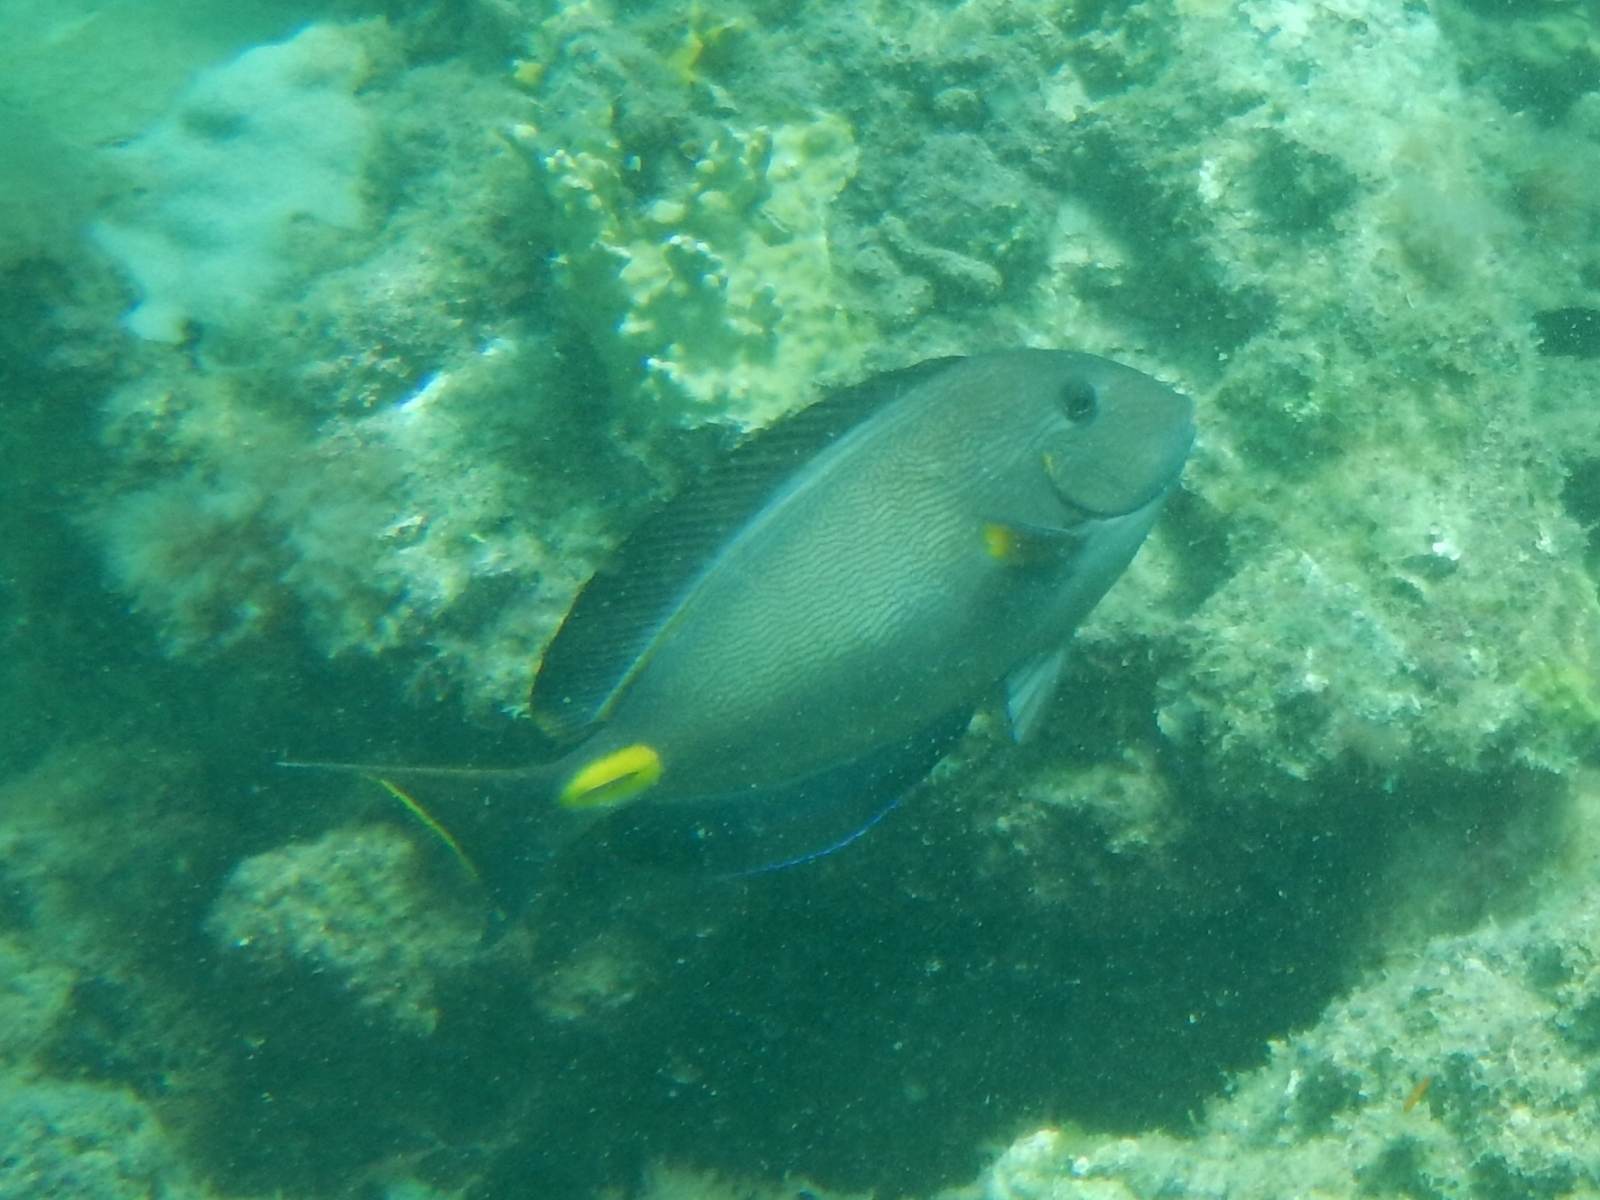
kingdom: Animalia
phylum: Chordata
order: Perciformes
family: Acanthuridae
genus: Acanthurus
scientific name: Acanthurus monroviae
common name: Monrovia surgeonfish
